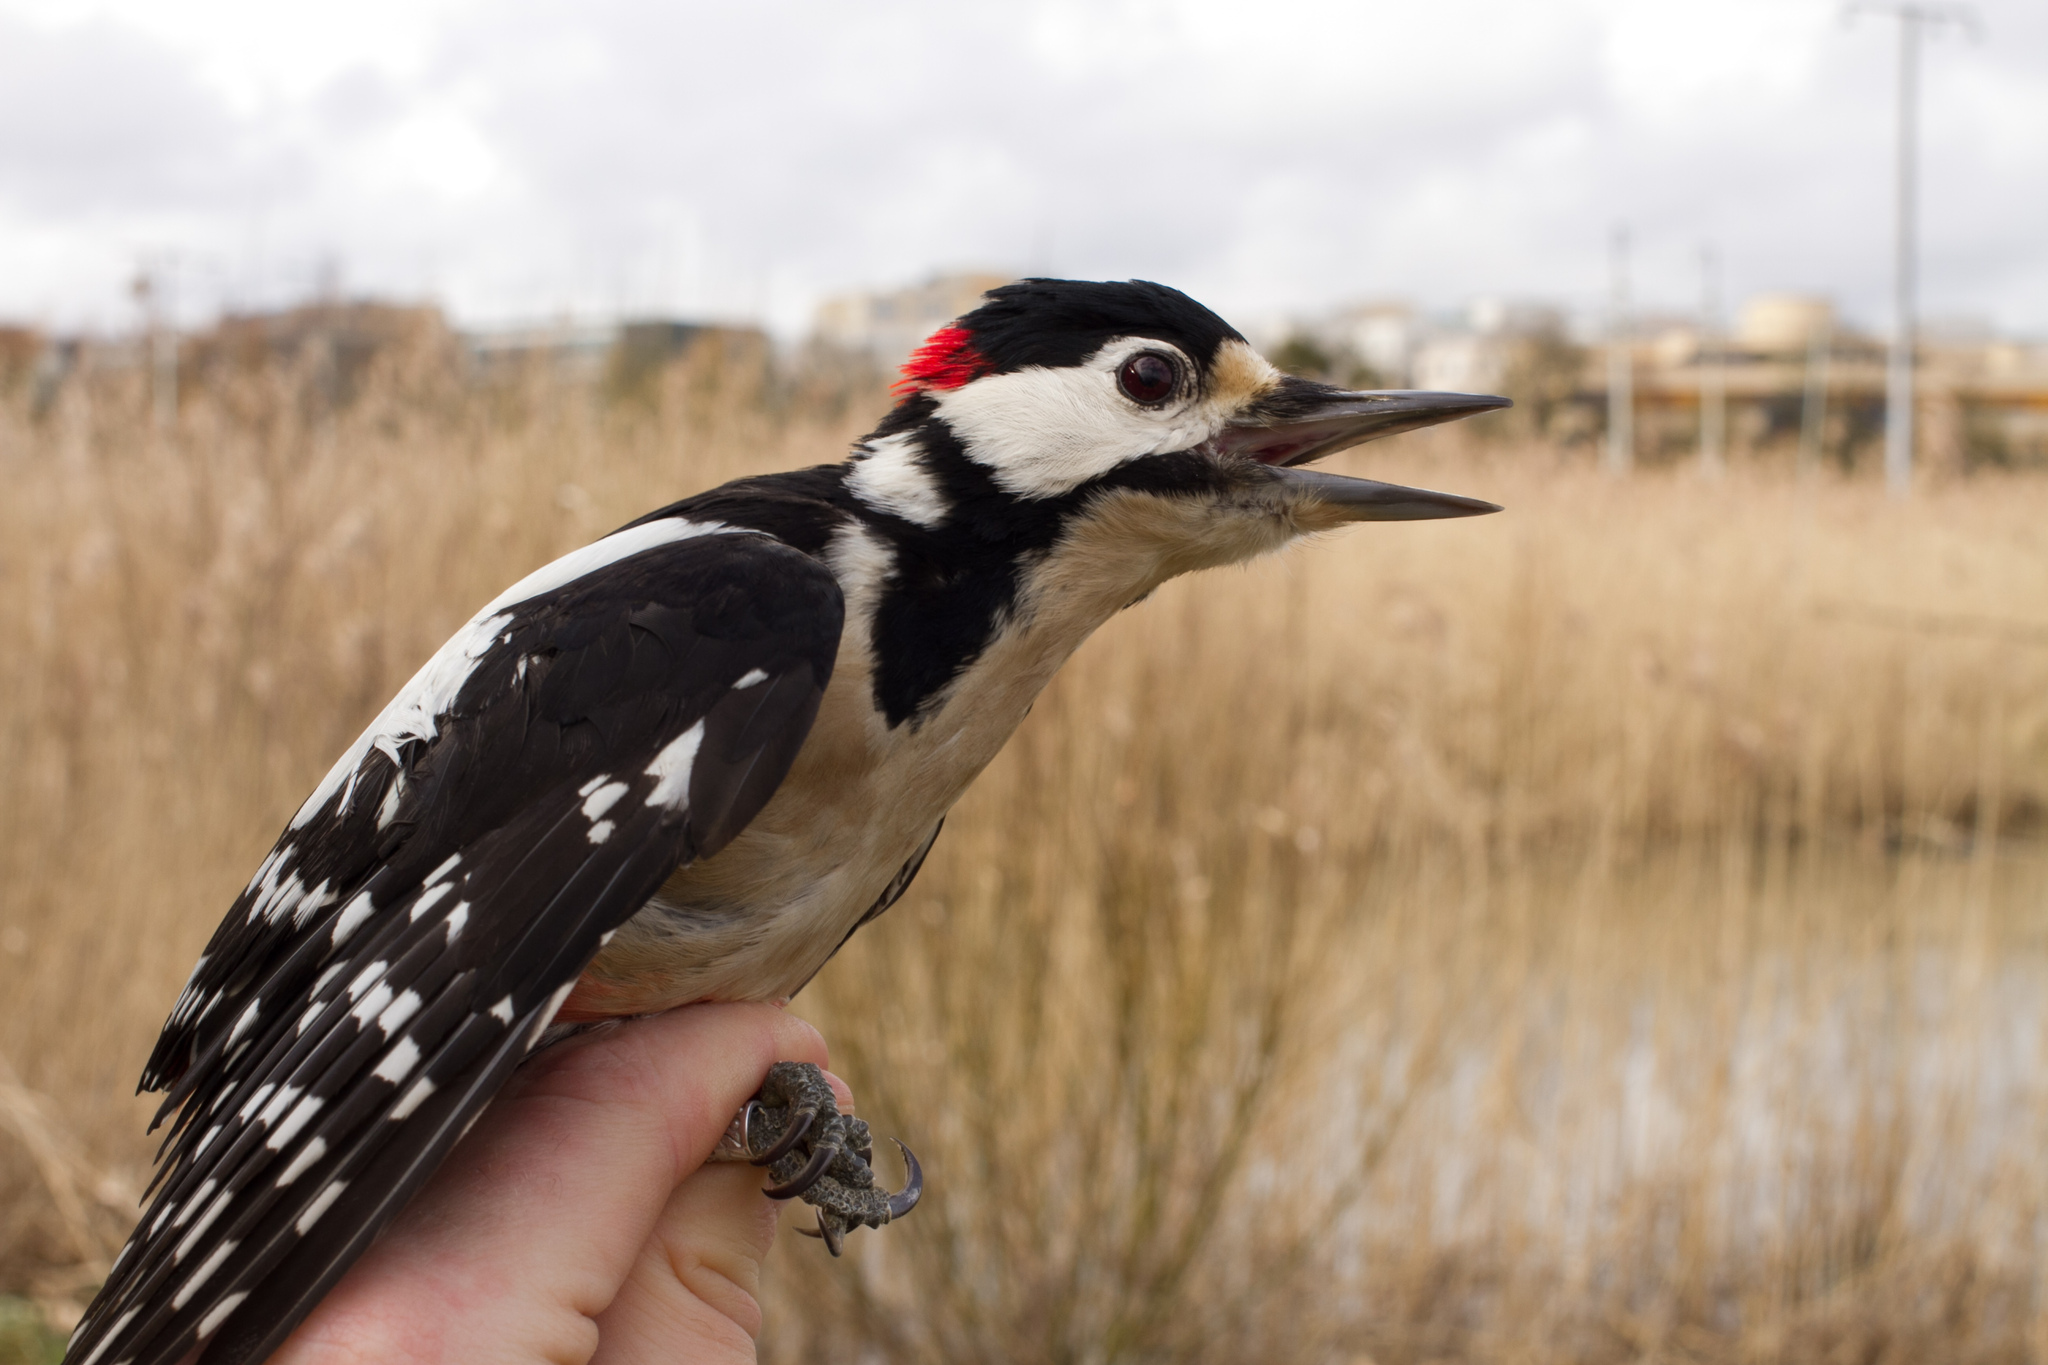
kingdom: Animalia
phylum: Chordata
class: Aves
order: Piciformes
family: Picidae
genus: Dendrocopos
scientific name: Dendrocopos major
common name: Great spotted woodpecker
